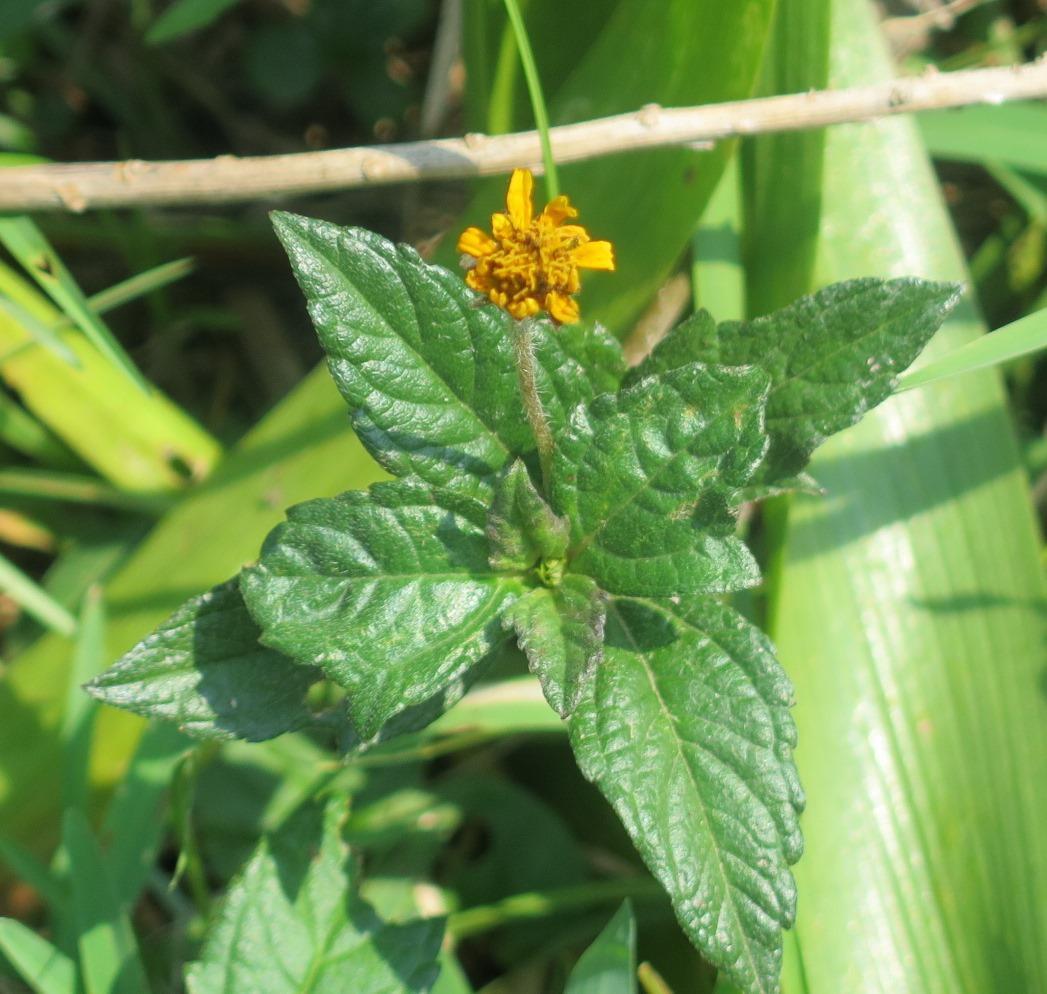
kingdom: Plantae
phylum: Tracheophyta
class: Magnoliopsida
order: Asterales
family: Asteraceae
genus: Sphagneticola
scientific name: Sphagneticola trilobata
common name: Bay biscayne creeping-oxeye
